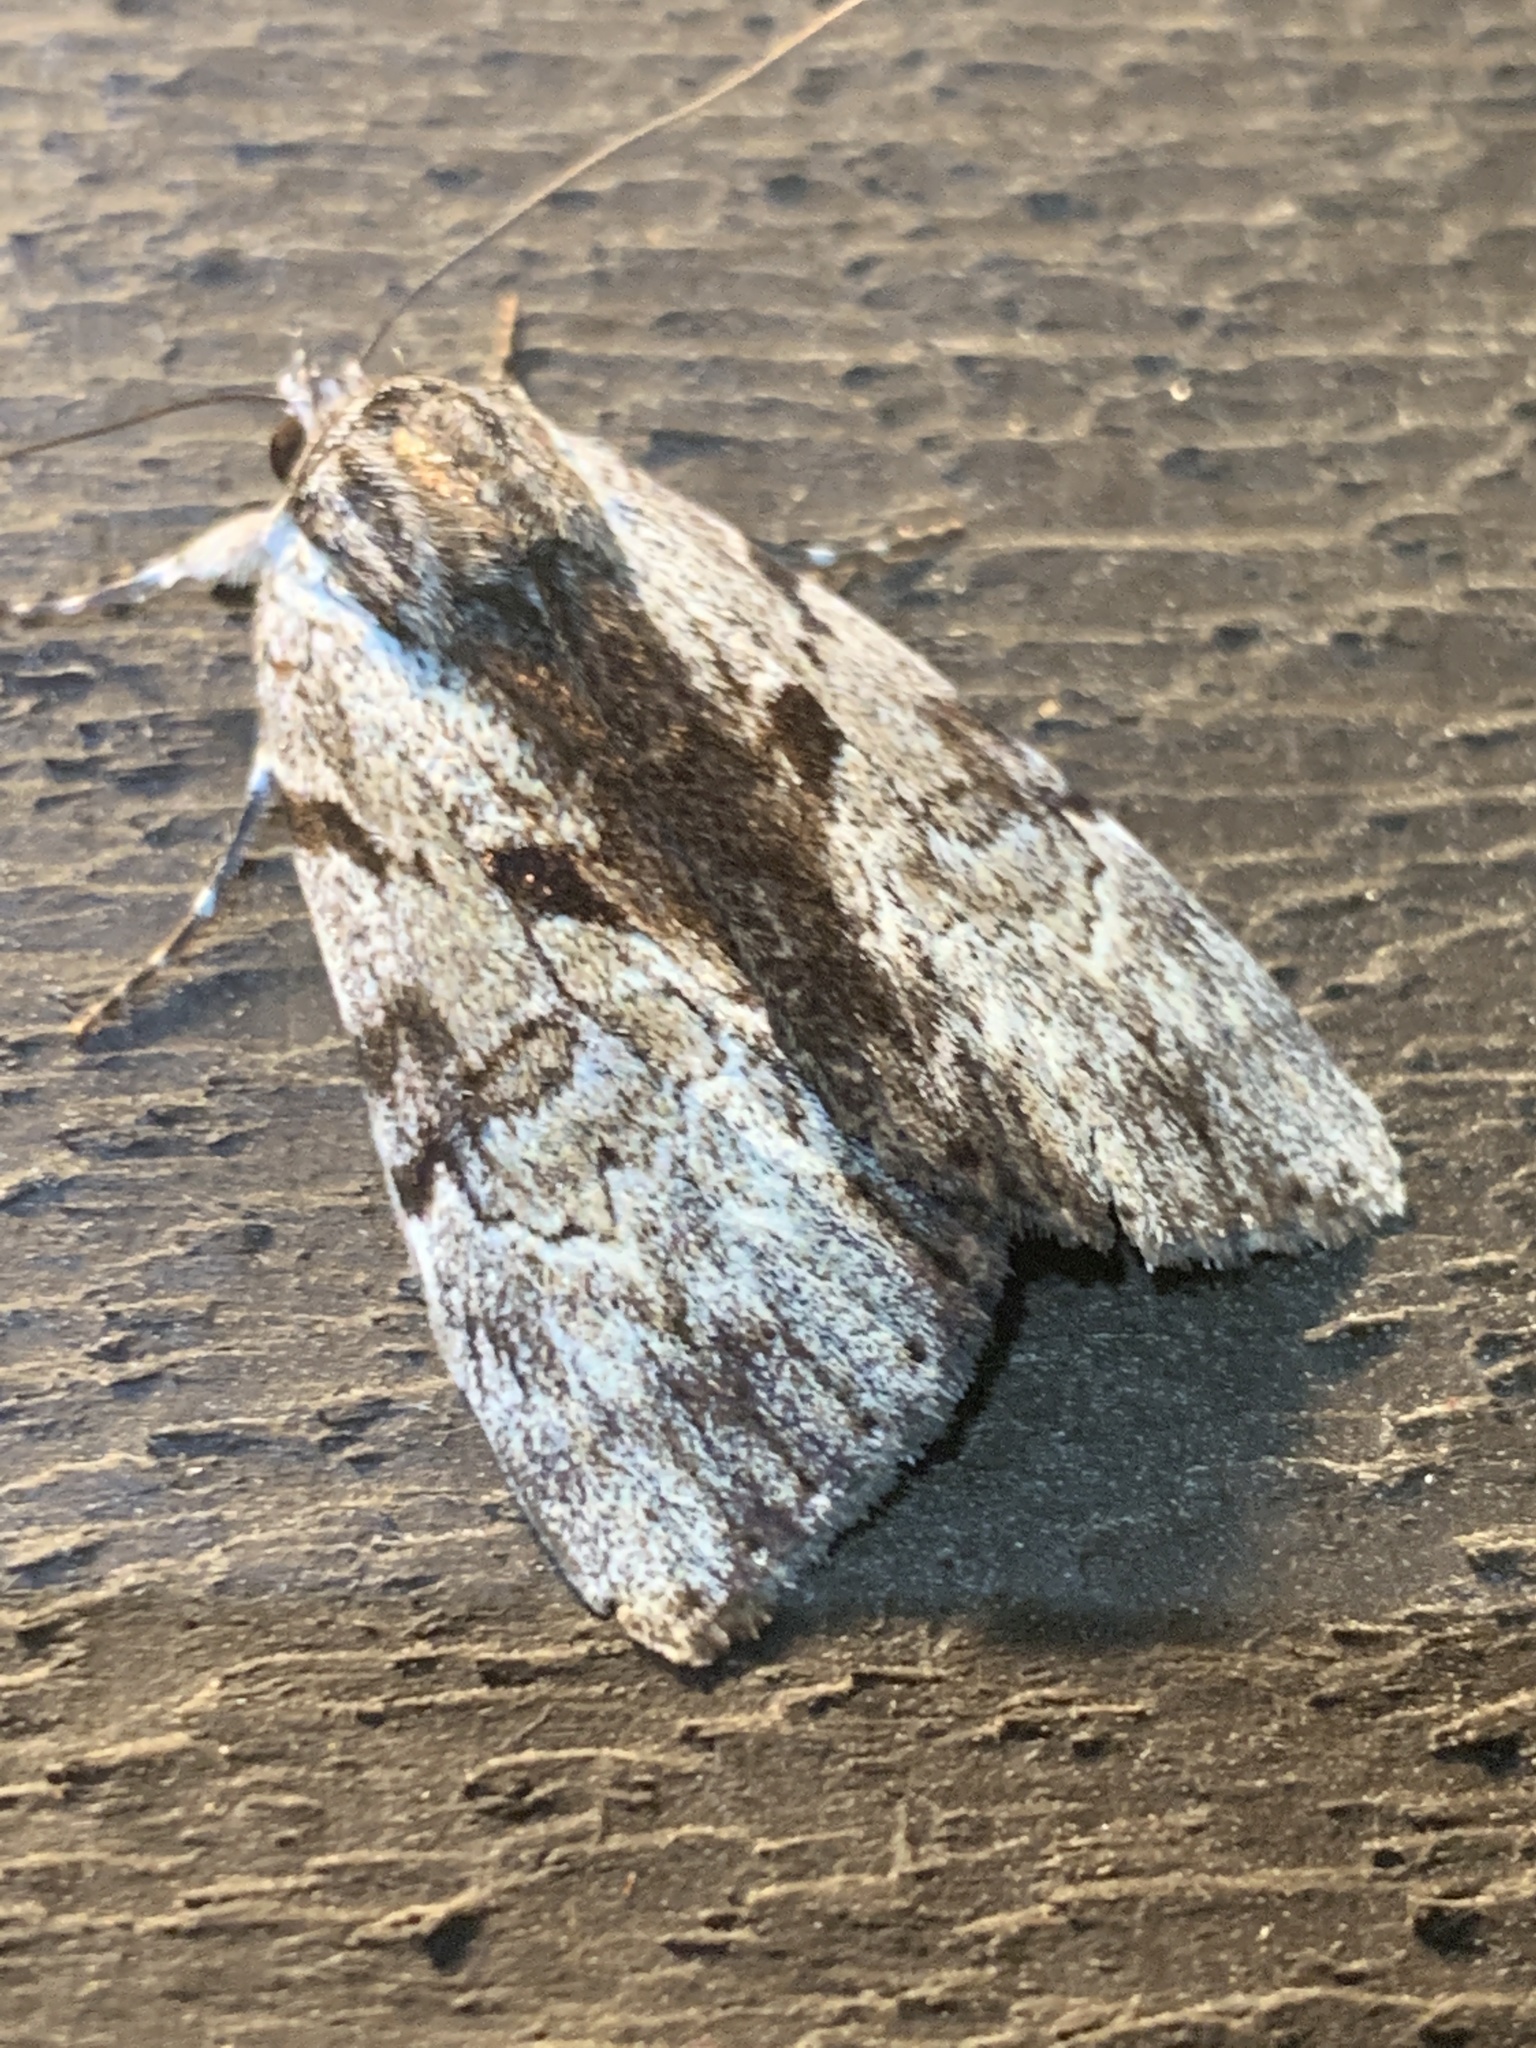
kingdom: Animalia
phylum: Arthropoda
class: Insecta
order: Lepidoptera
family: Erebidae
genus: Catocala
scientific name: Catocala andromedae
